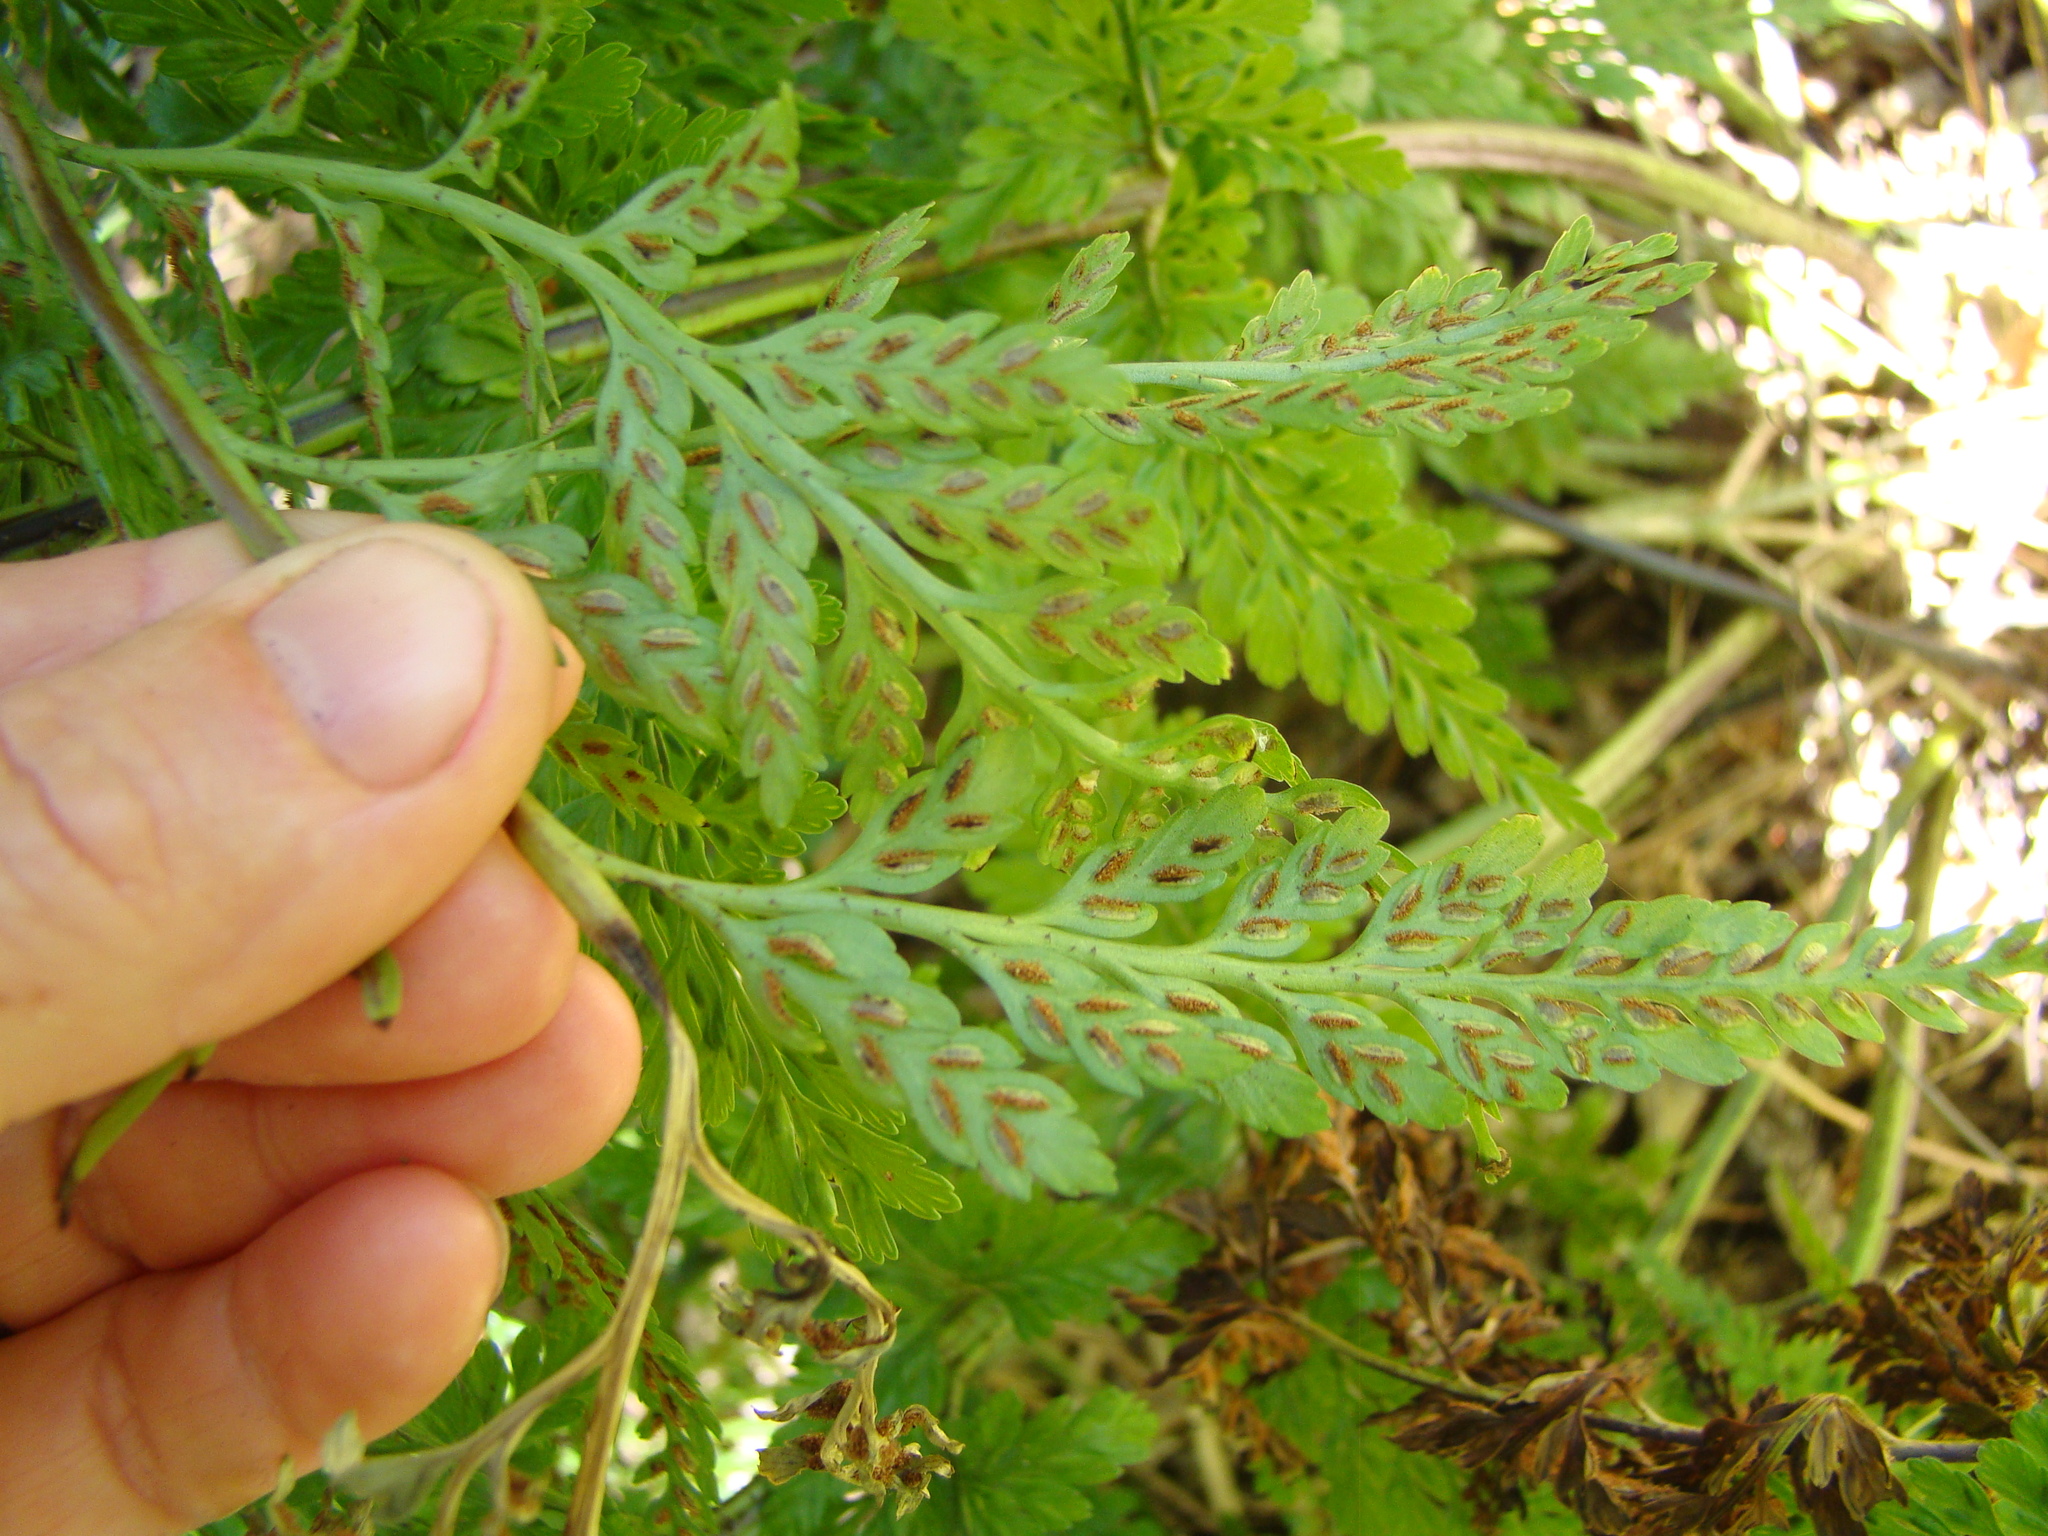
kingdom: Plantae
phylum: Tracheophyta
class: Polypodiopsida
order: Polypodiales
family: Aspleniaceae
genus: Asplenium
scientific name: Asplenium
